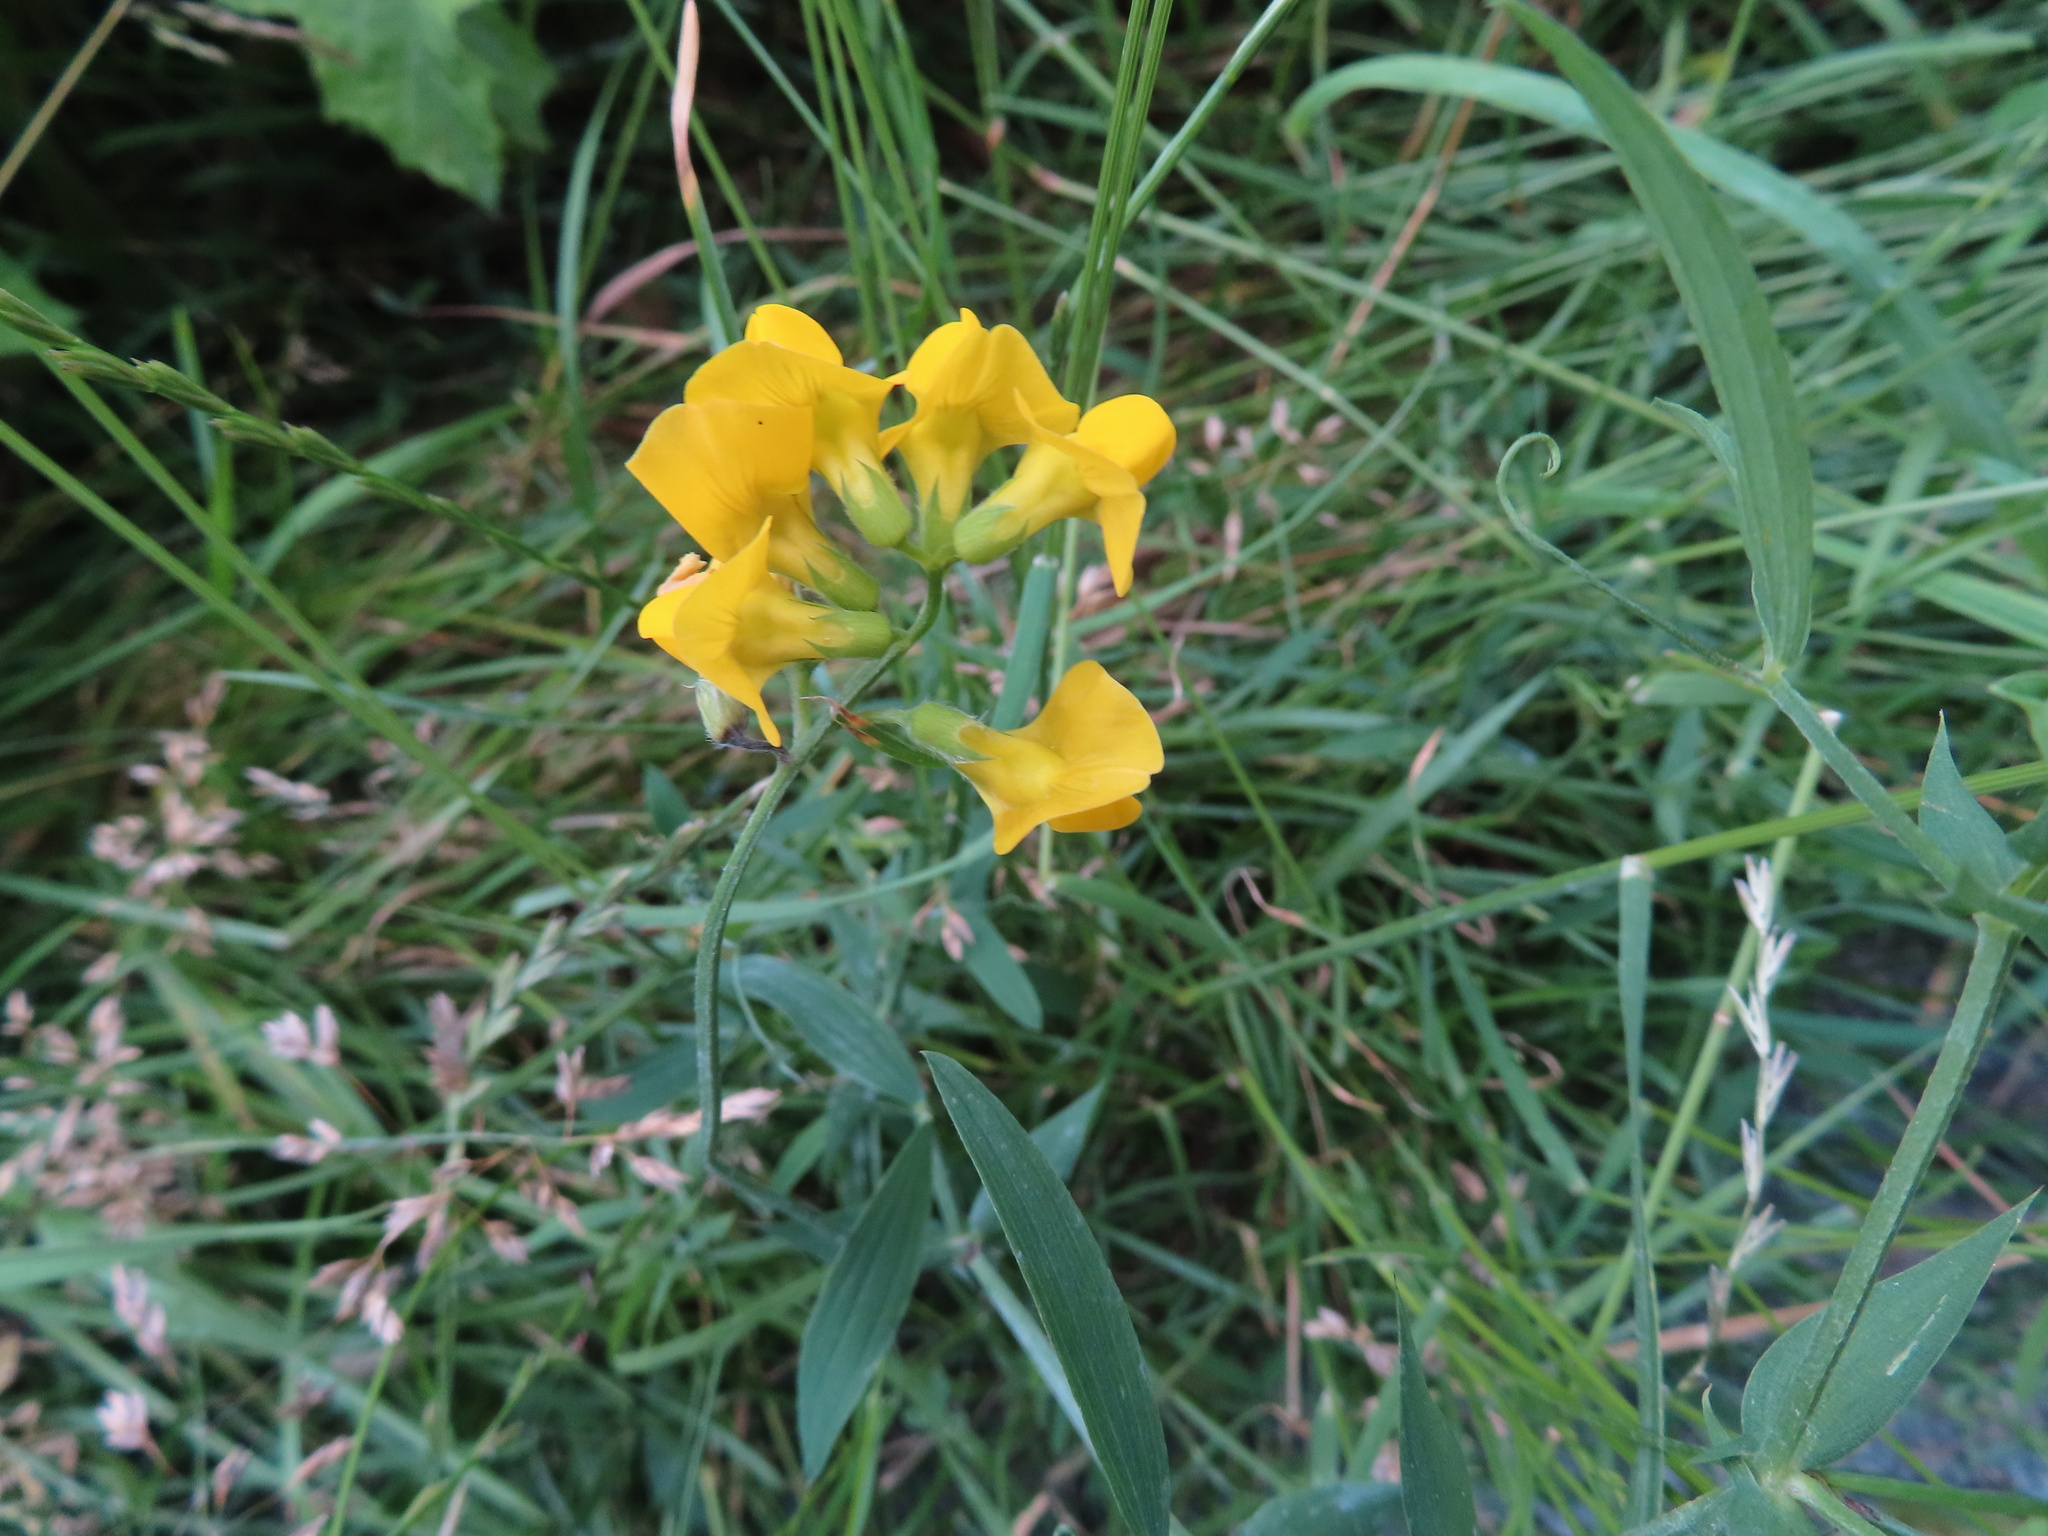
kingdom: Plantae
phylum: Tracheophyta
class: Magnoliopsida
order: Fabales
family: Fabaceae
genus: Lathyrus
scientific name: Lathyrus pratensis
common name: Meadow vetchling
